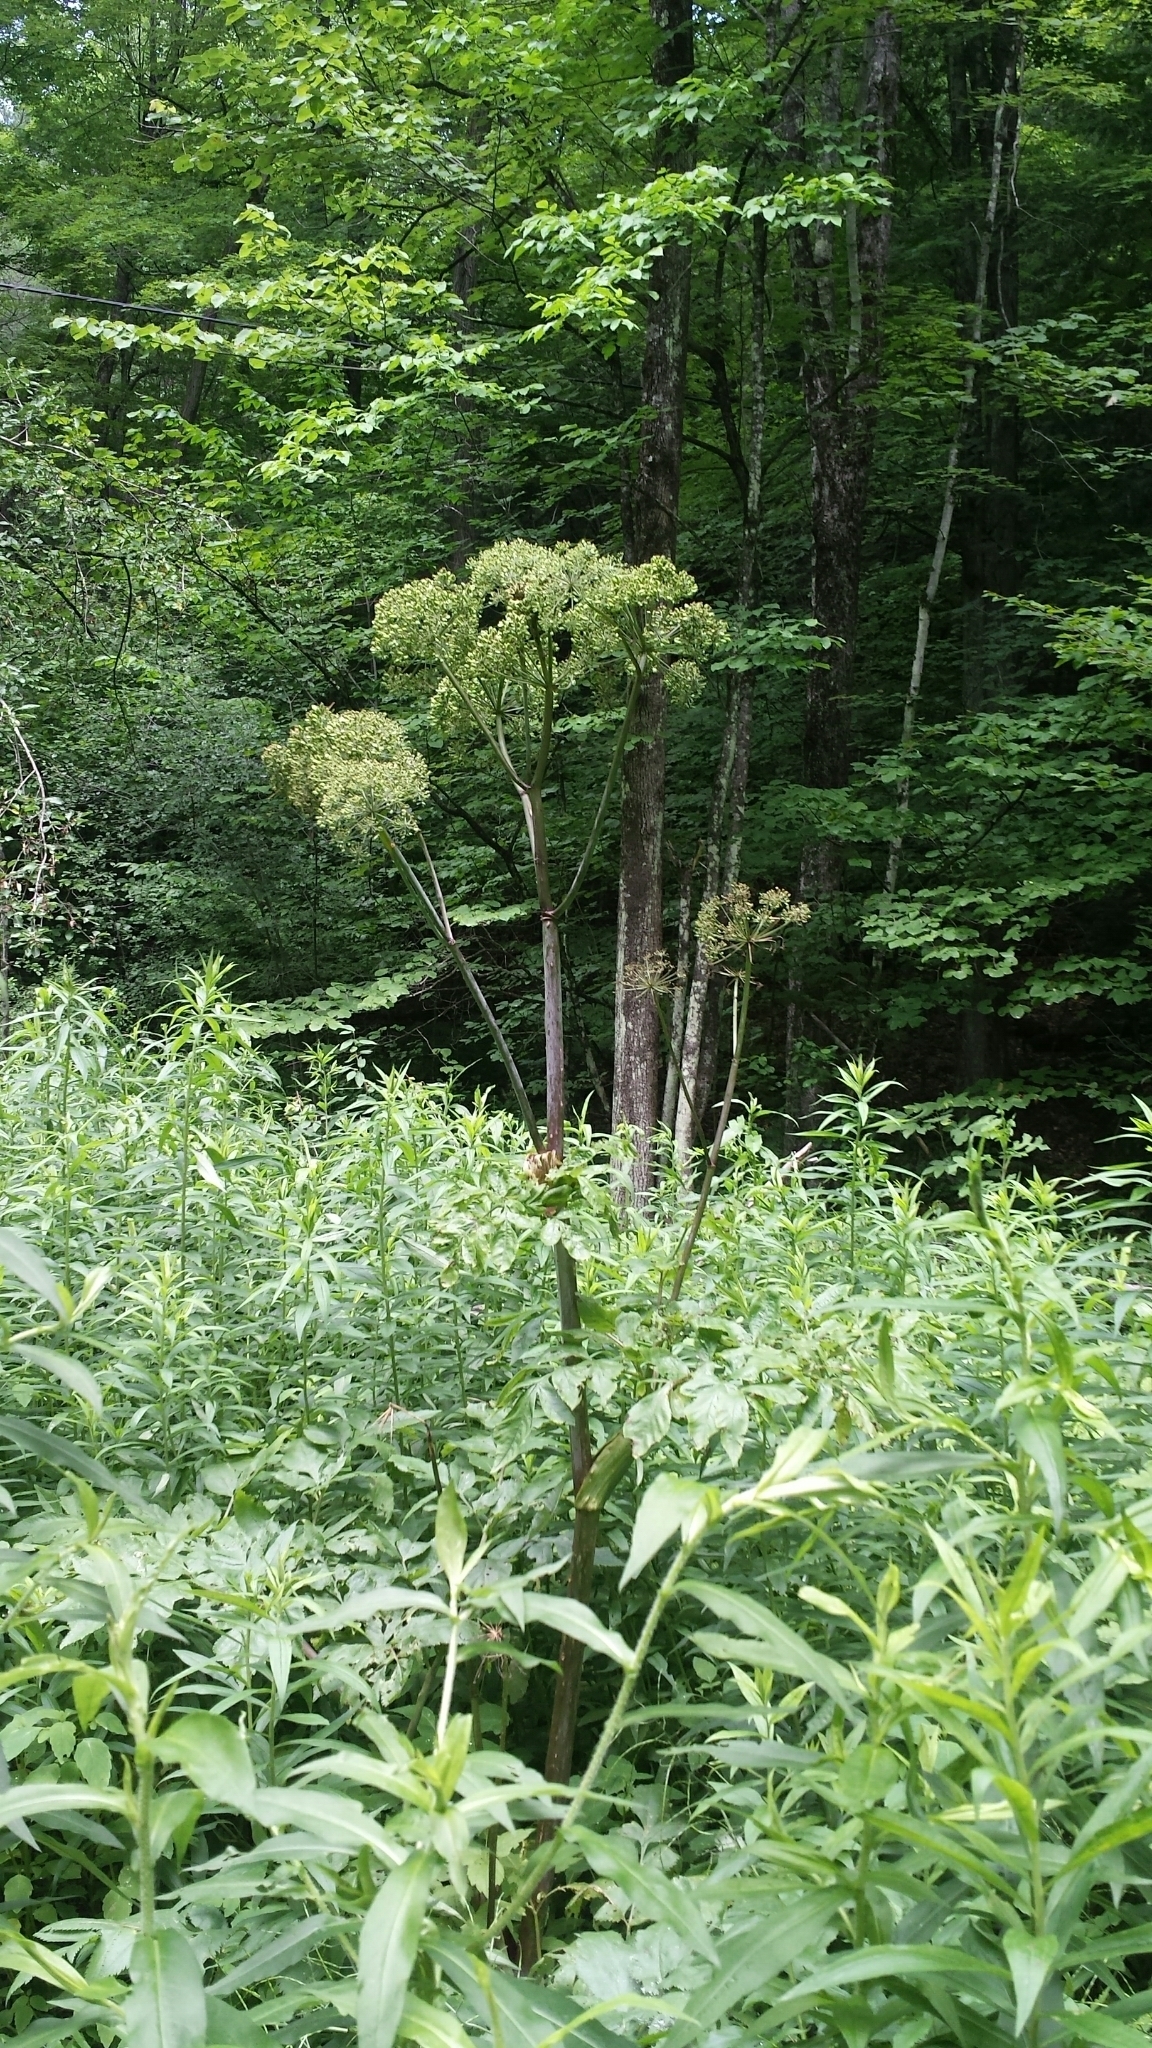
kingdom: Plantae
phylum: Tracheophyta
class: Magnoliopsida
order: Apiales
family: Apiaceae
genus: Angelica
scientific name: Angelica atropurpurea
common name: Great angelica
